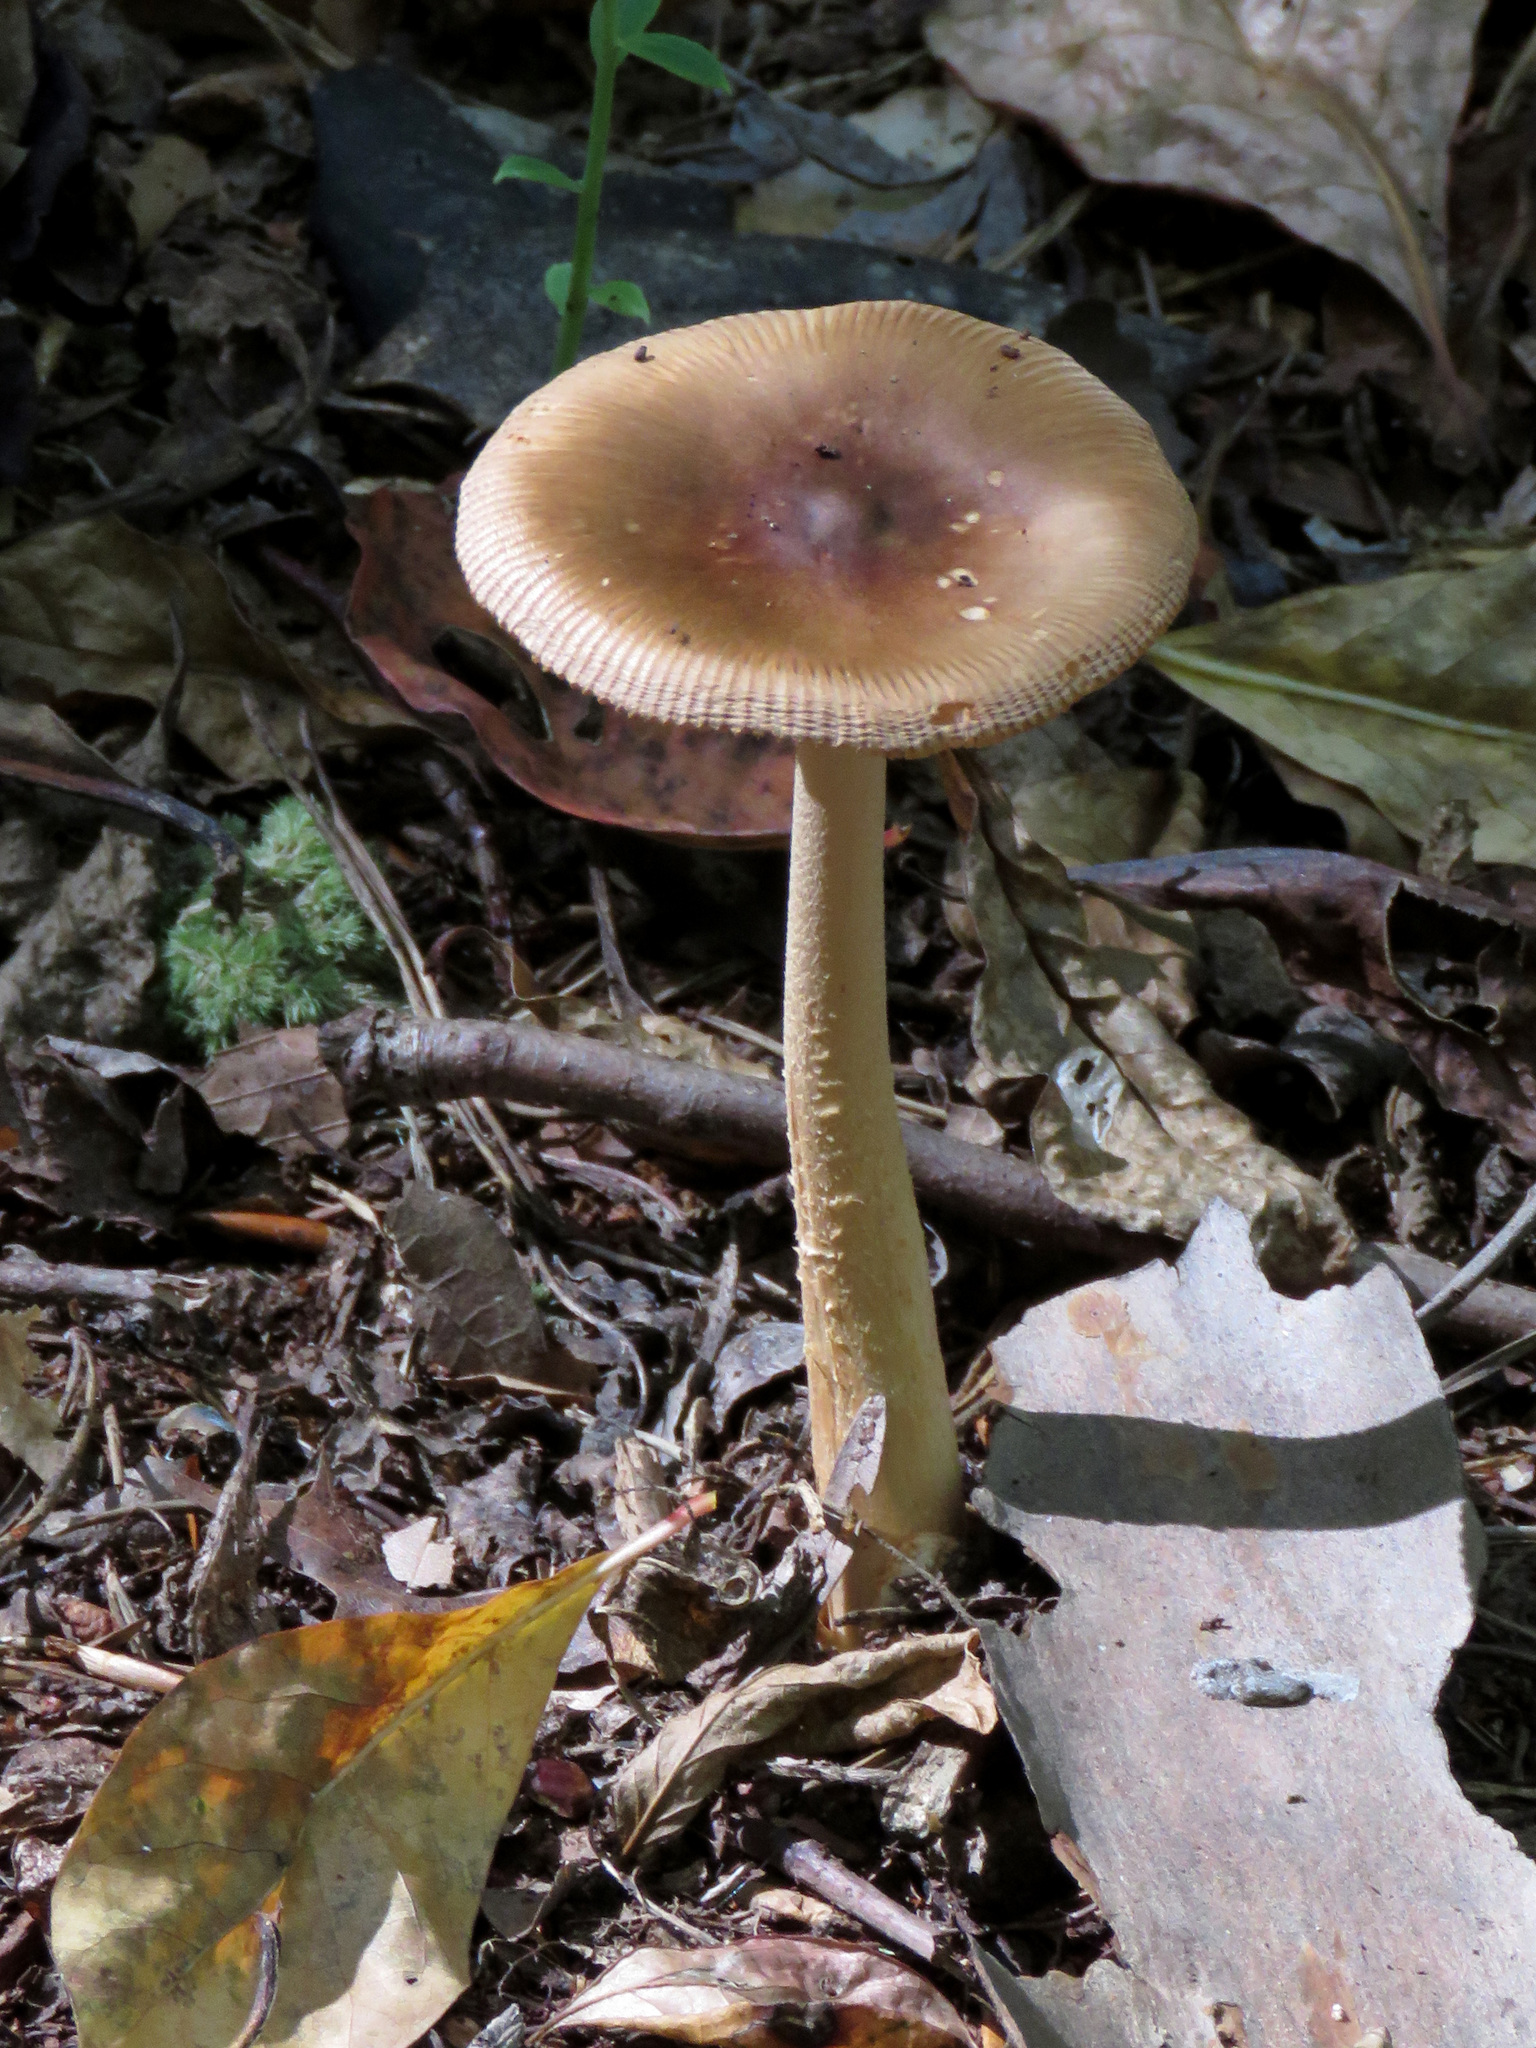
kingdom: Fungi
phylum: Basidiomycota
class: Agaricomycetes
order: Agaricales
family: Amanitaceae
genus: Amanita
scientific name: Amanita fulva
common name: Tawny grisette
